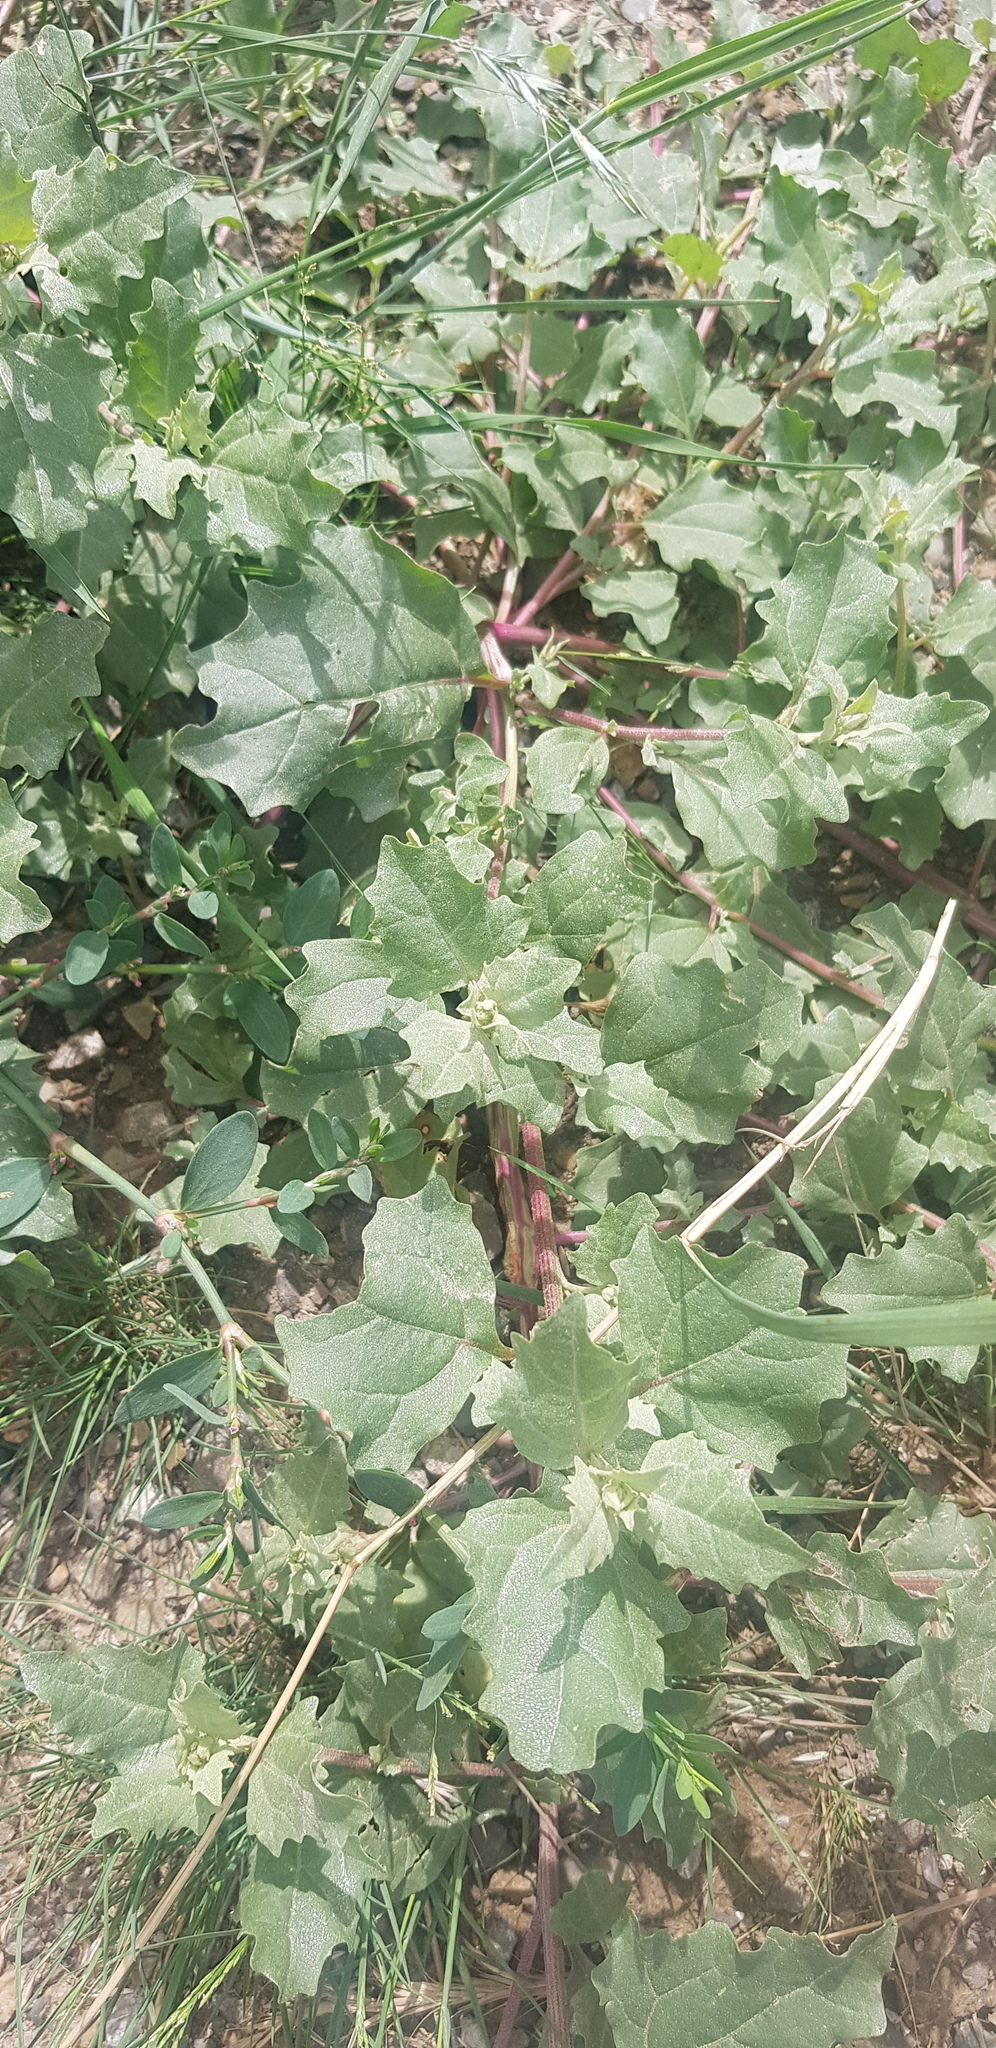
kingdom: Plantae
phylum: Tracheophyta
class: Magnoliopsida
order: Caryophyllales
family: Amaranthaceae
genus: Atriplex
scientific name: Atriplex sibirica
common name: Siberian saltbush
